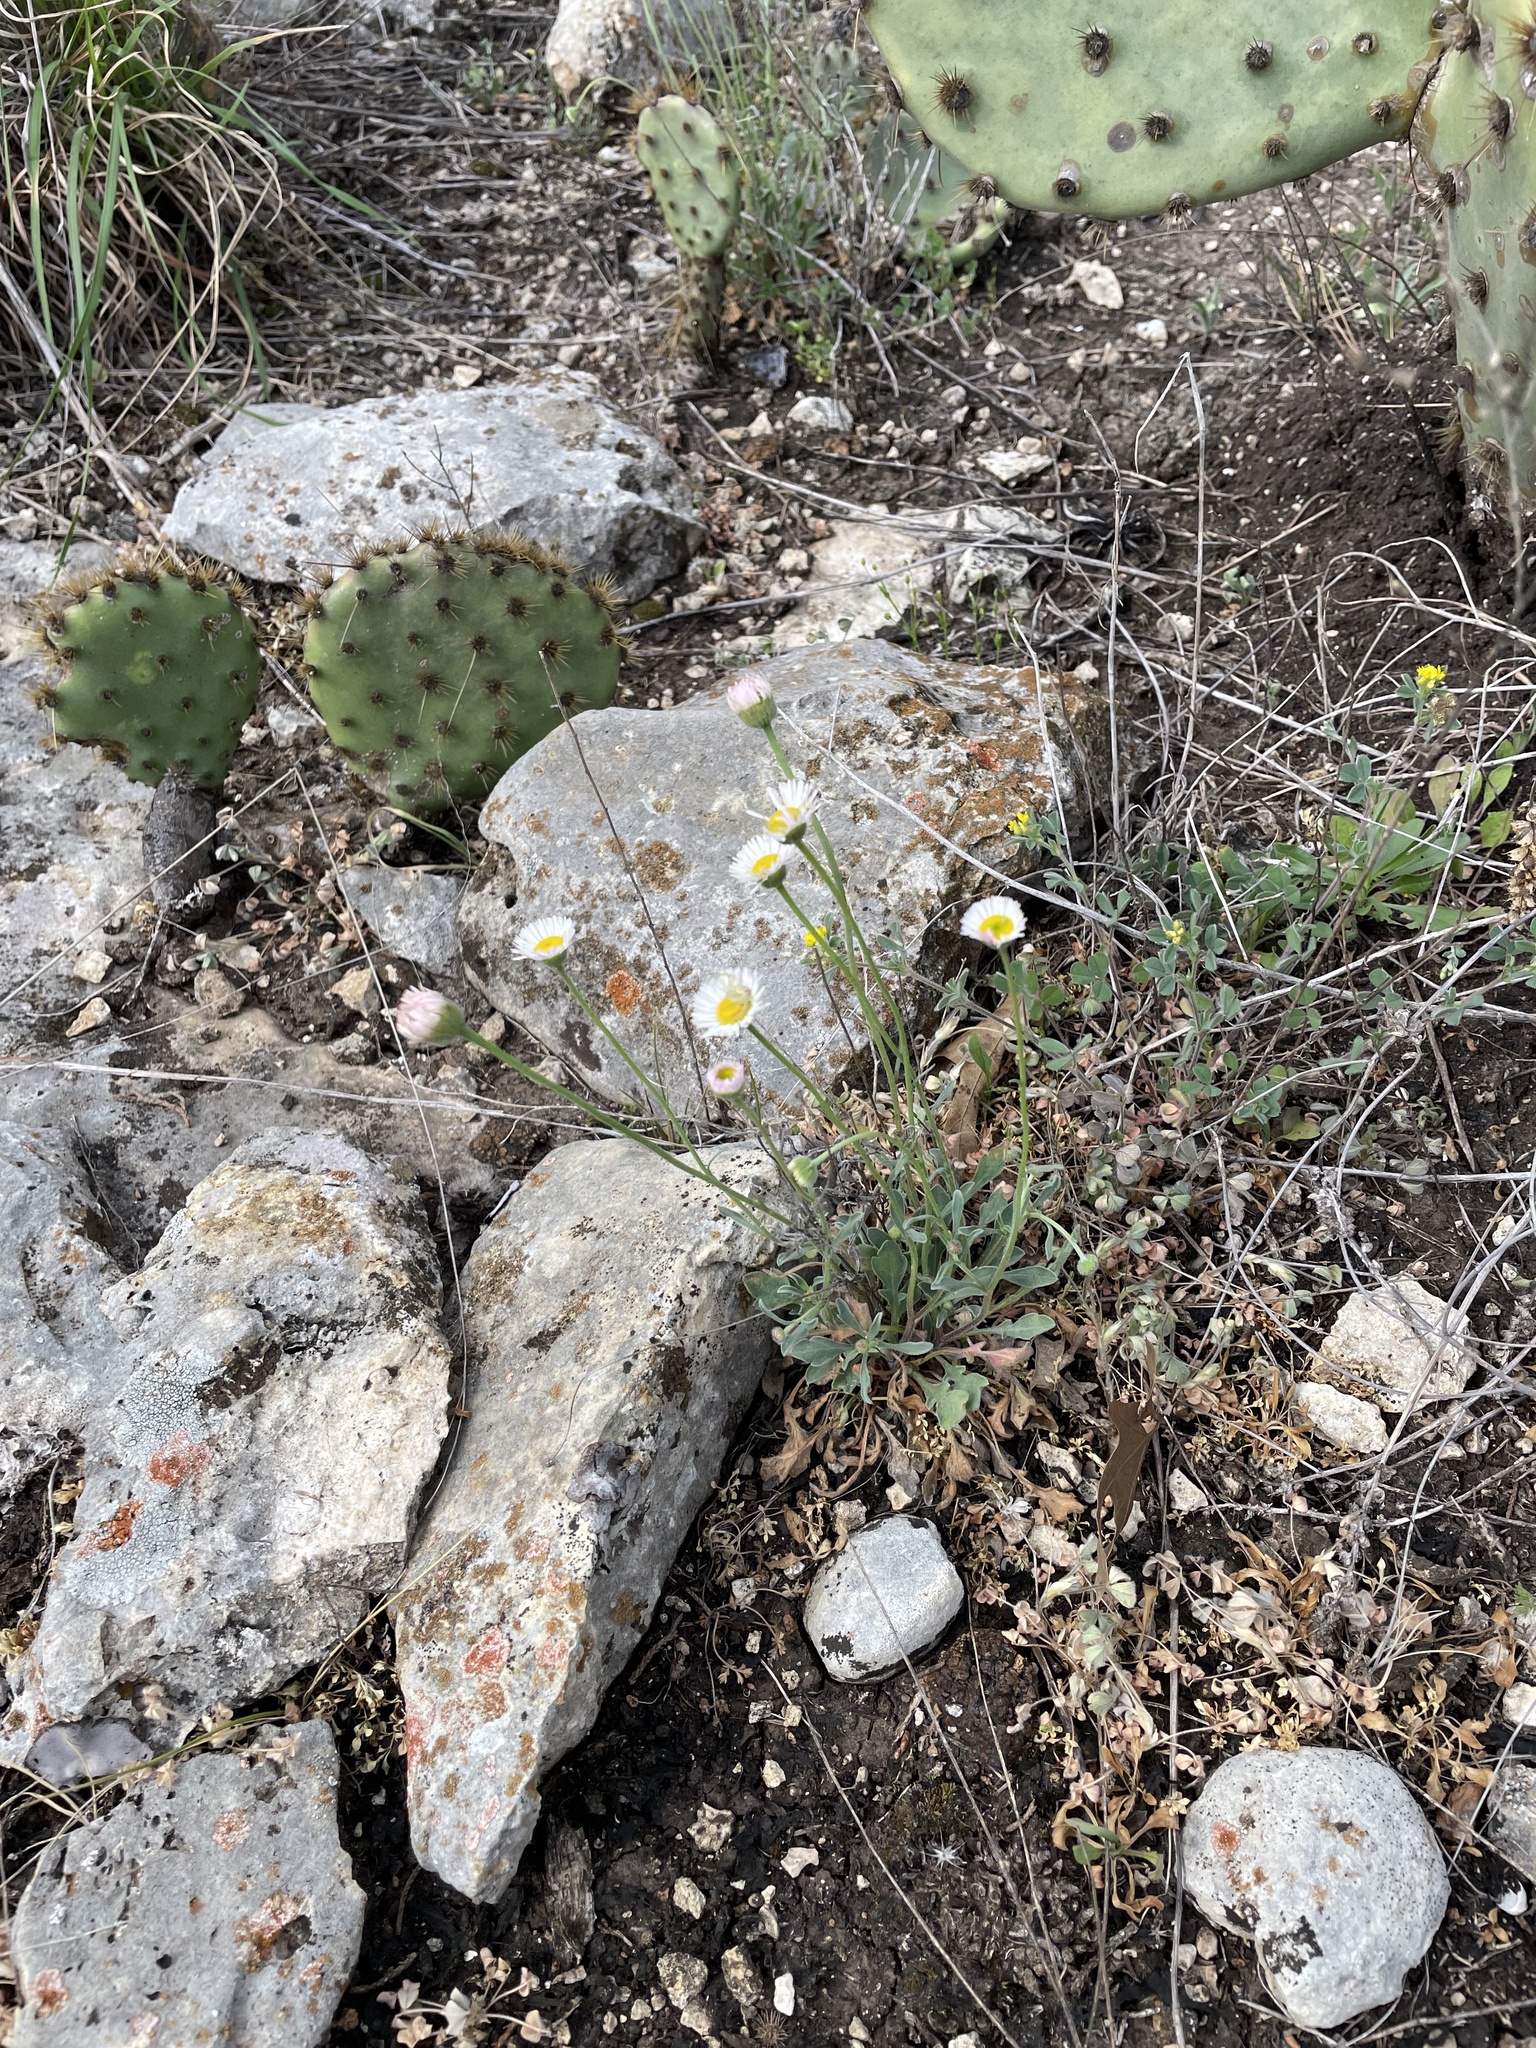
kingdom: Plantae
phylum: Tracheophyta
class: Magnoliopsida
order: Asterales
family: Asteraceae
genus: Erigeron
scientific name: Erigeron modestus
